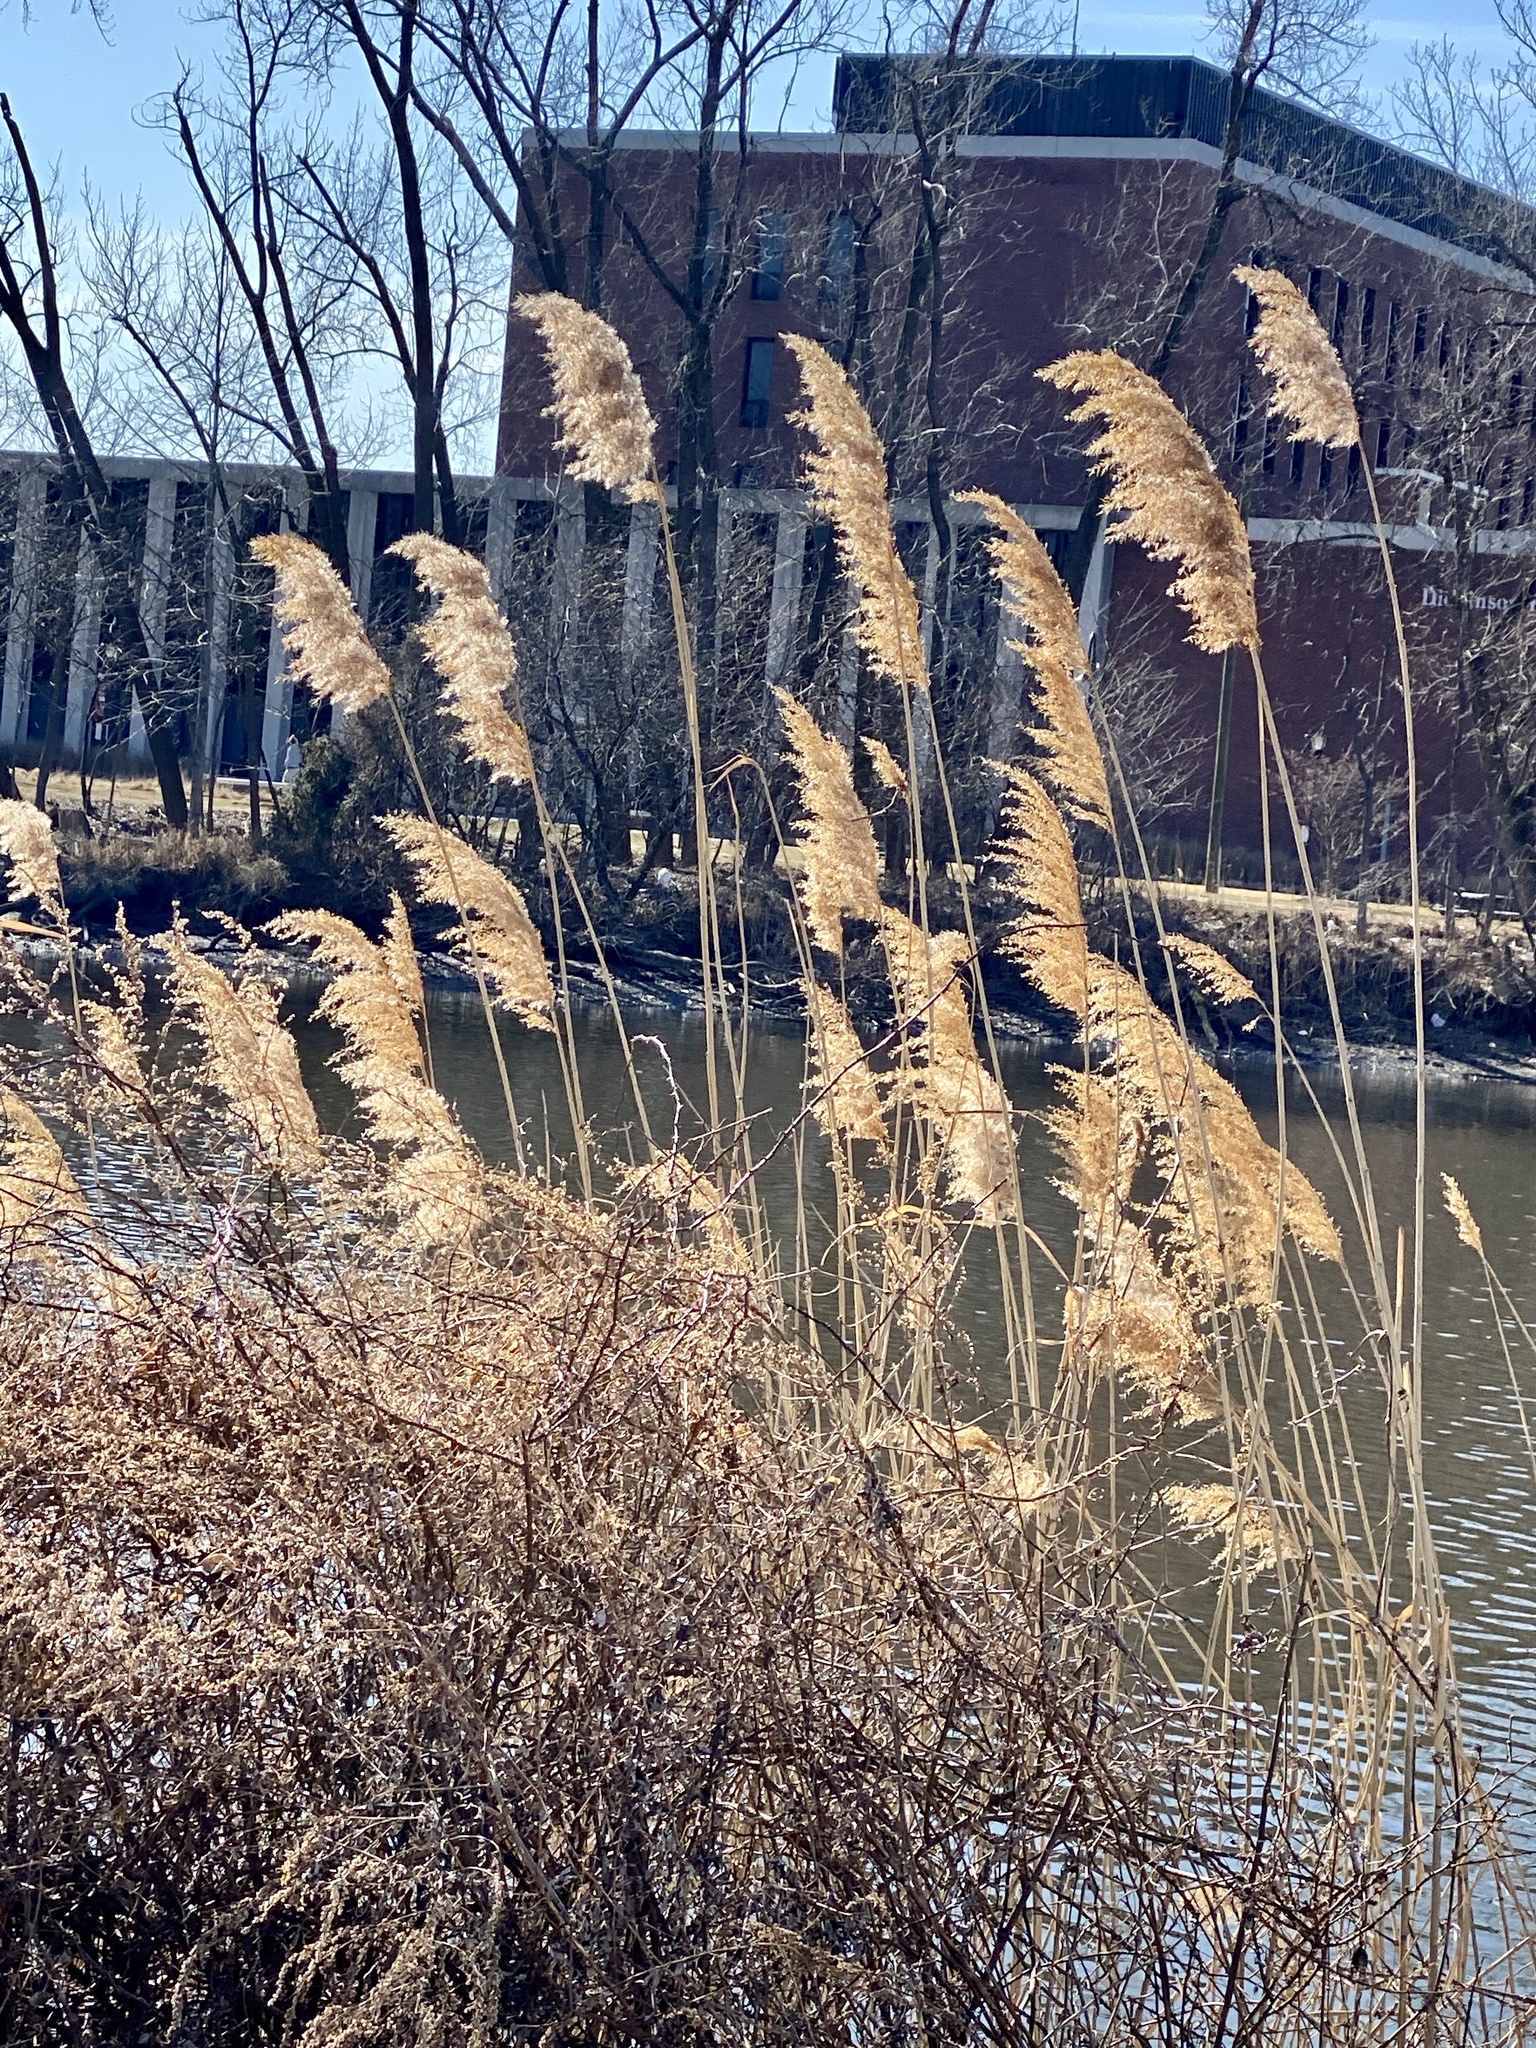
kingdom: Plantae
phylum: Tracheophyta
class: Liliopsida
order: Poales
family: Poaceae
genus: Phragmites
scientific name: Phragmites australis
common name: Common reed
